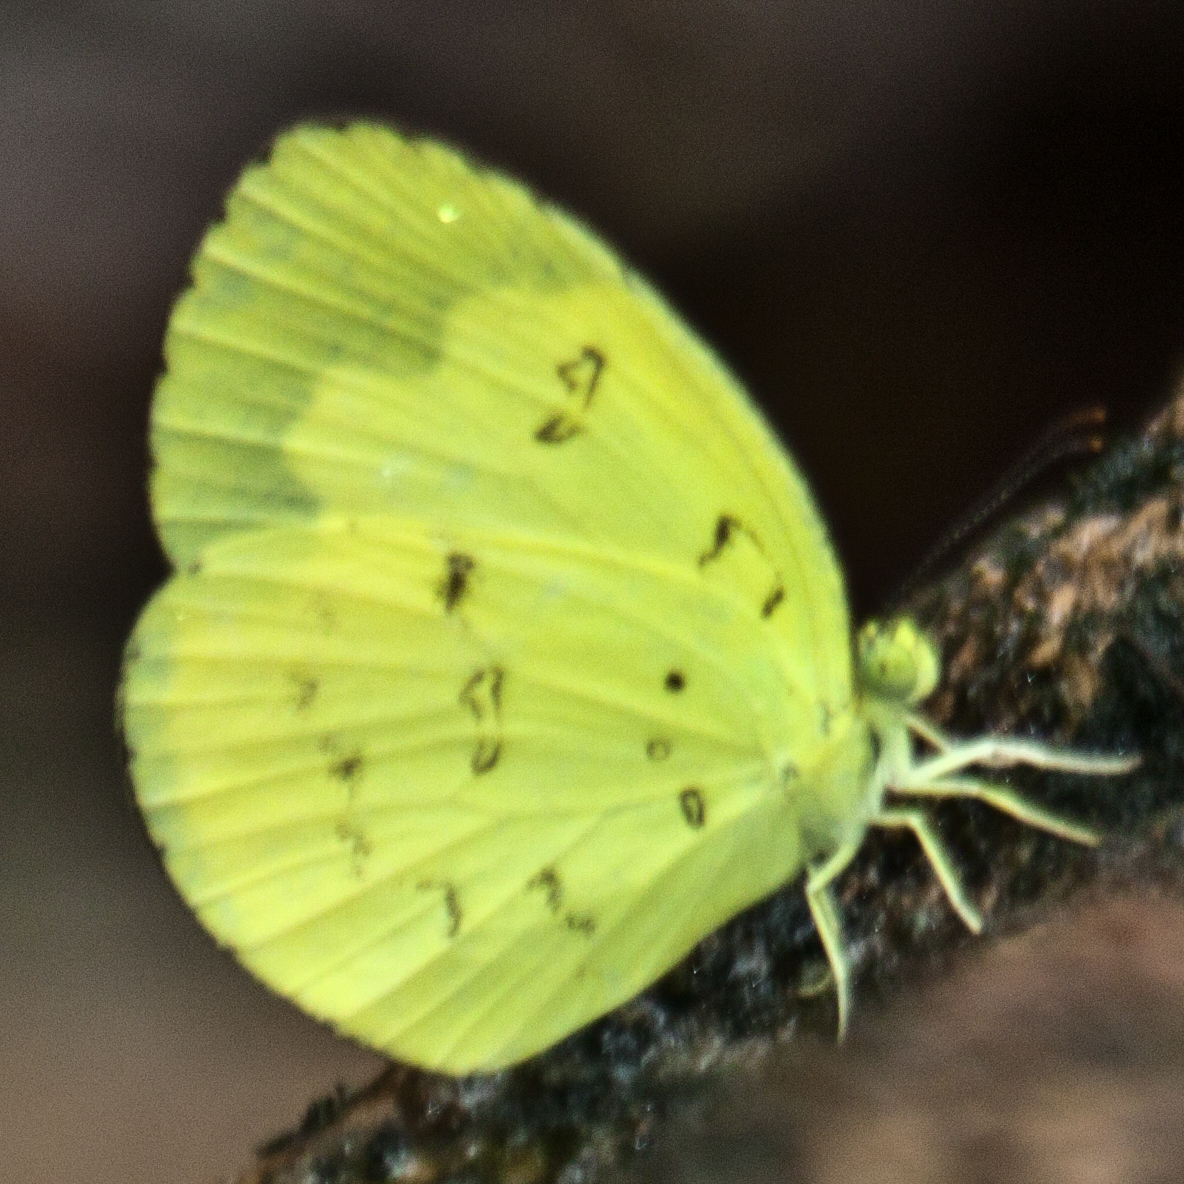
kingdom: Animalia
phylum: Arthropoda
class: Insecta
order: Lepidoptera
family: Pieridae
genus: Eurema
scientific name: Eurema ada
